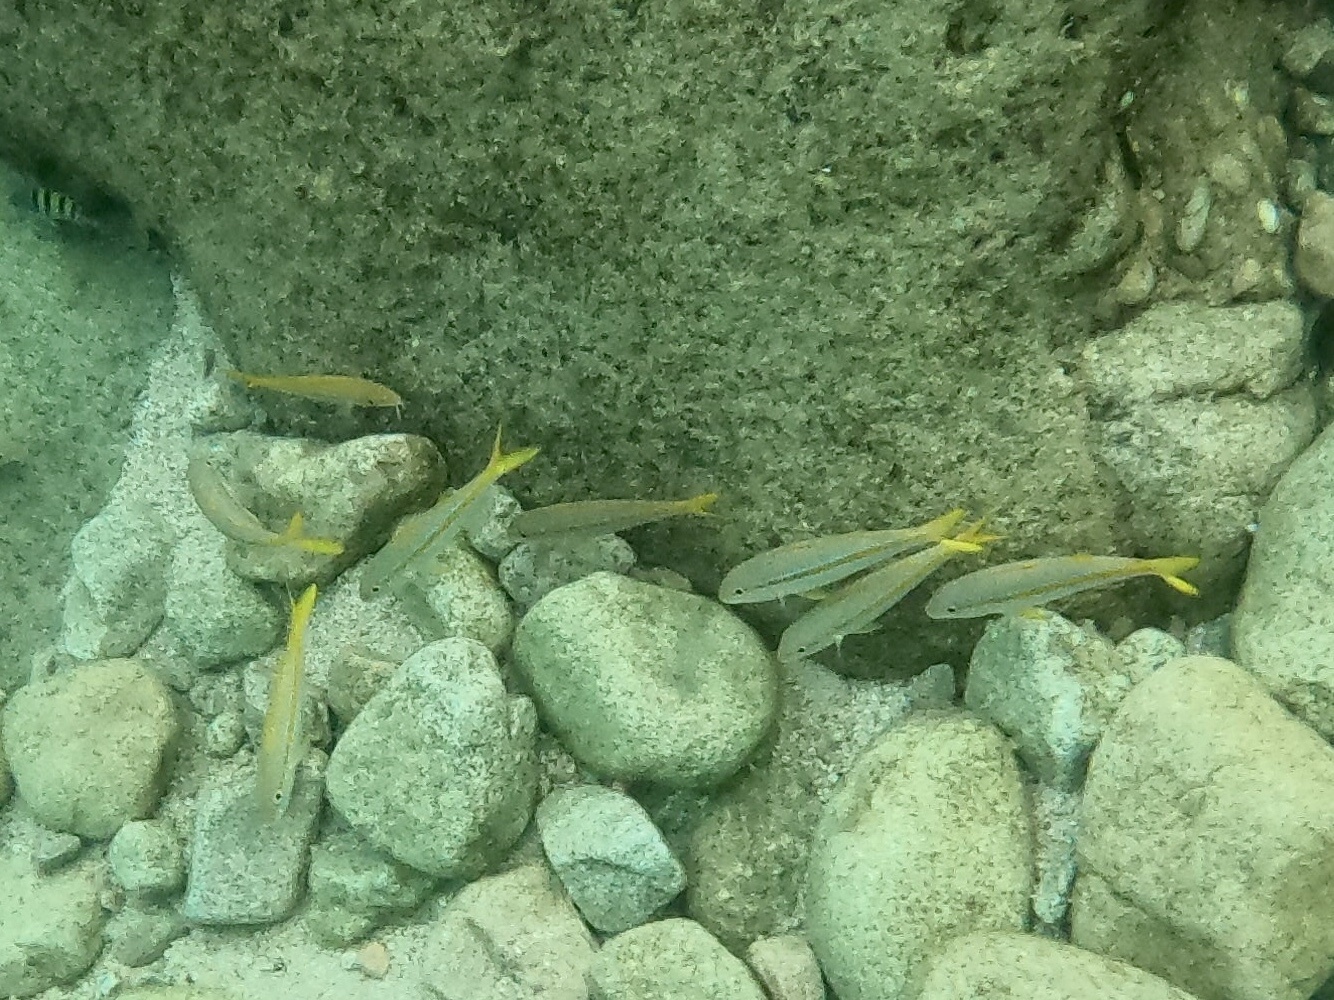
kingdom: Animalia
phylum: Chordata
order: Perciformes
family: Mullidae
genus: Mulloidichthys
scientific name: Mulloidichthys dentatus
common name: Mexican goatfish
